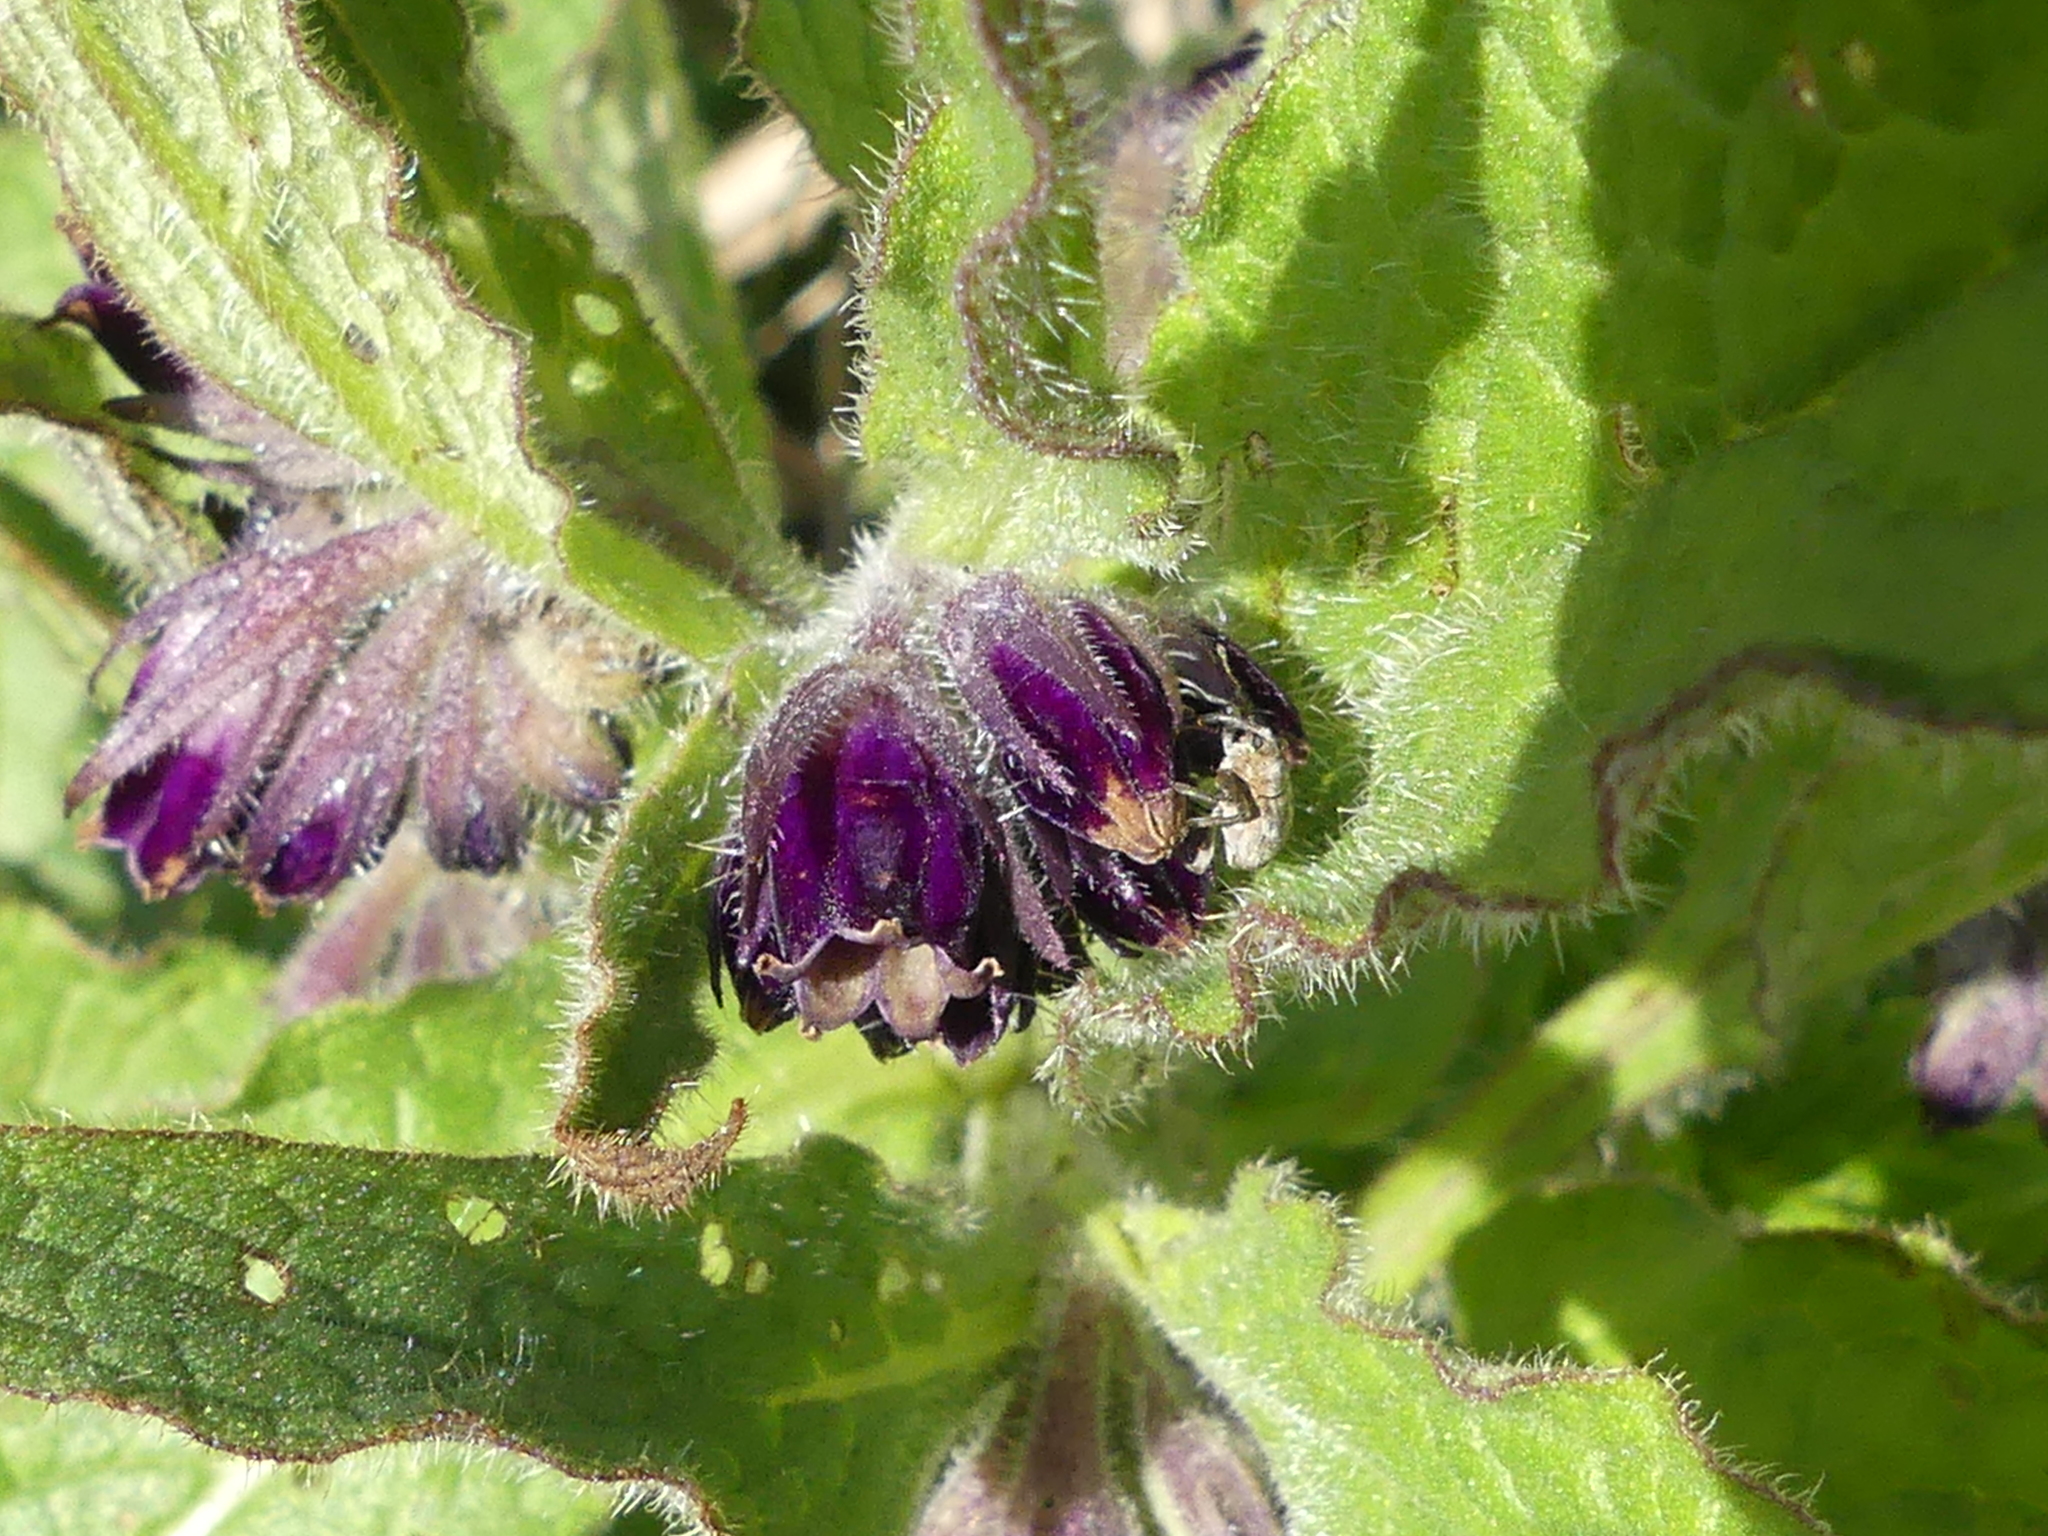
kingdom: Animalia
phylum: Arthropoda
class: Insecta
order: Coleoptera
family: Curculionidae
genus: Mogulones
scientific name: Mogulones raphani
